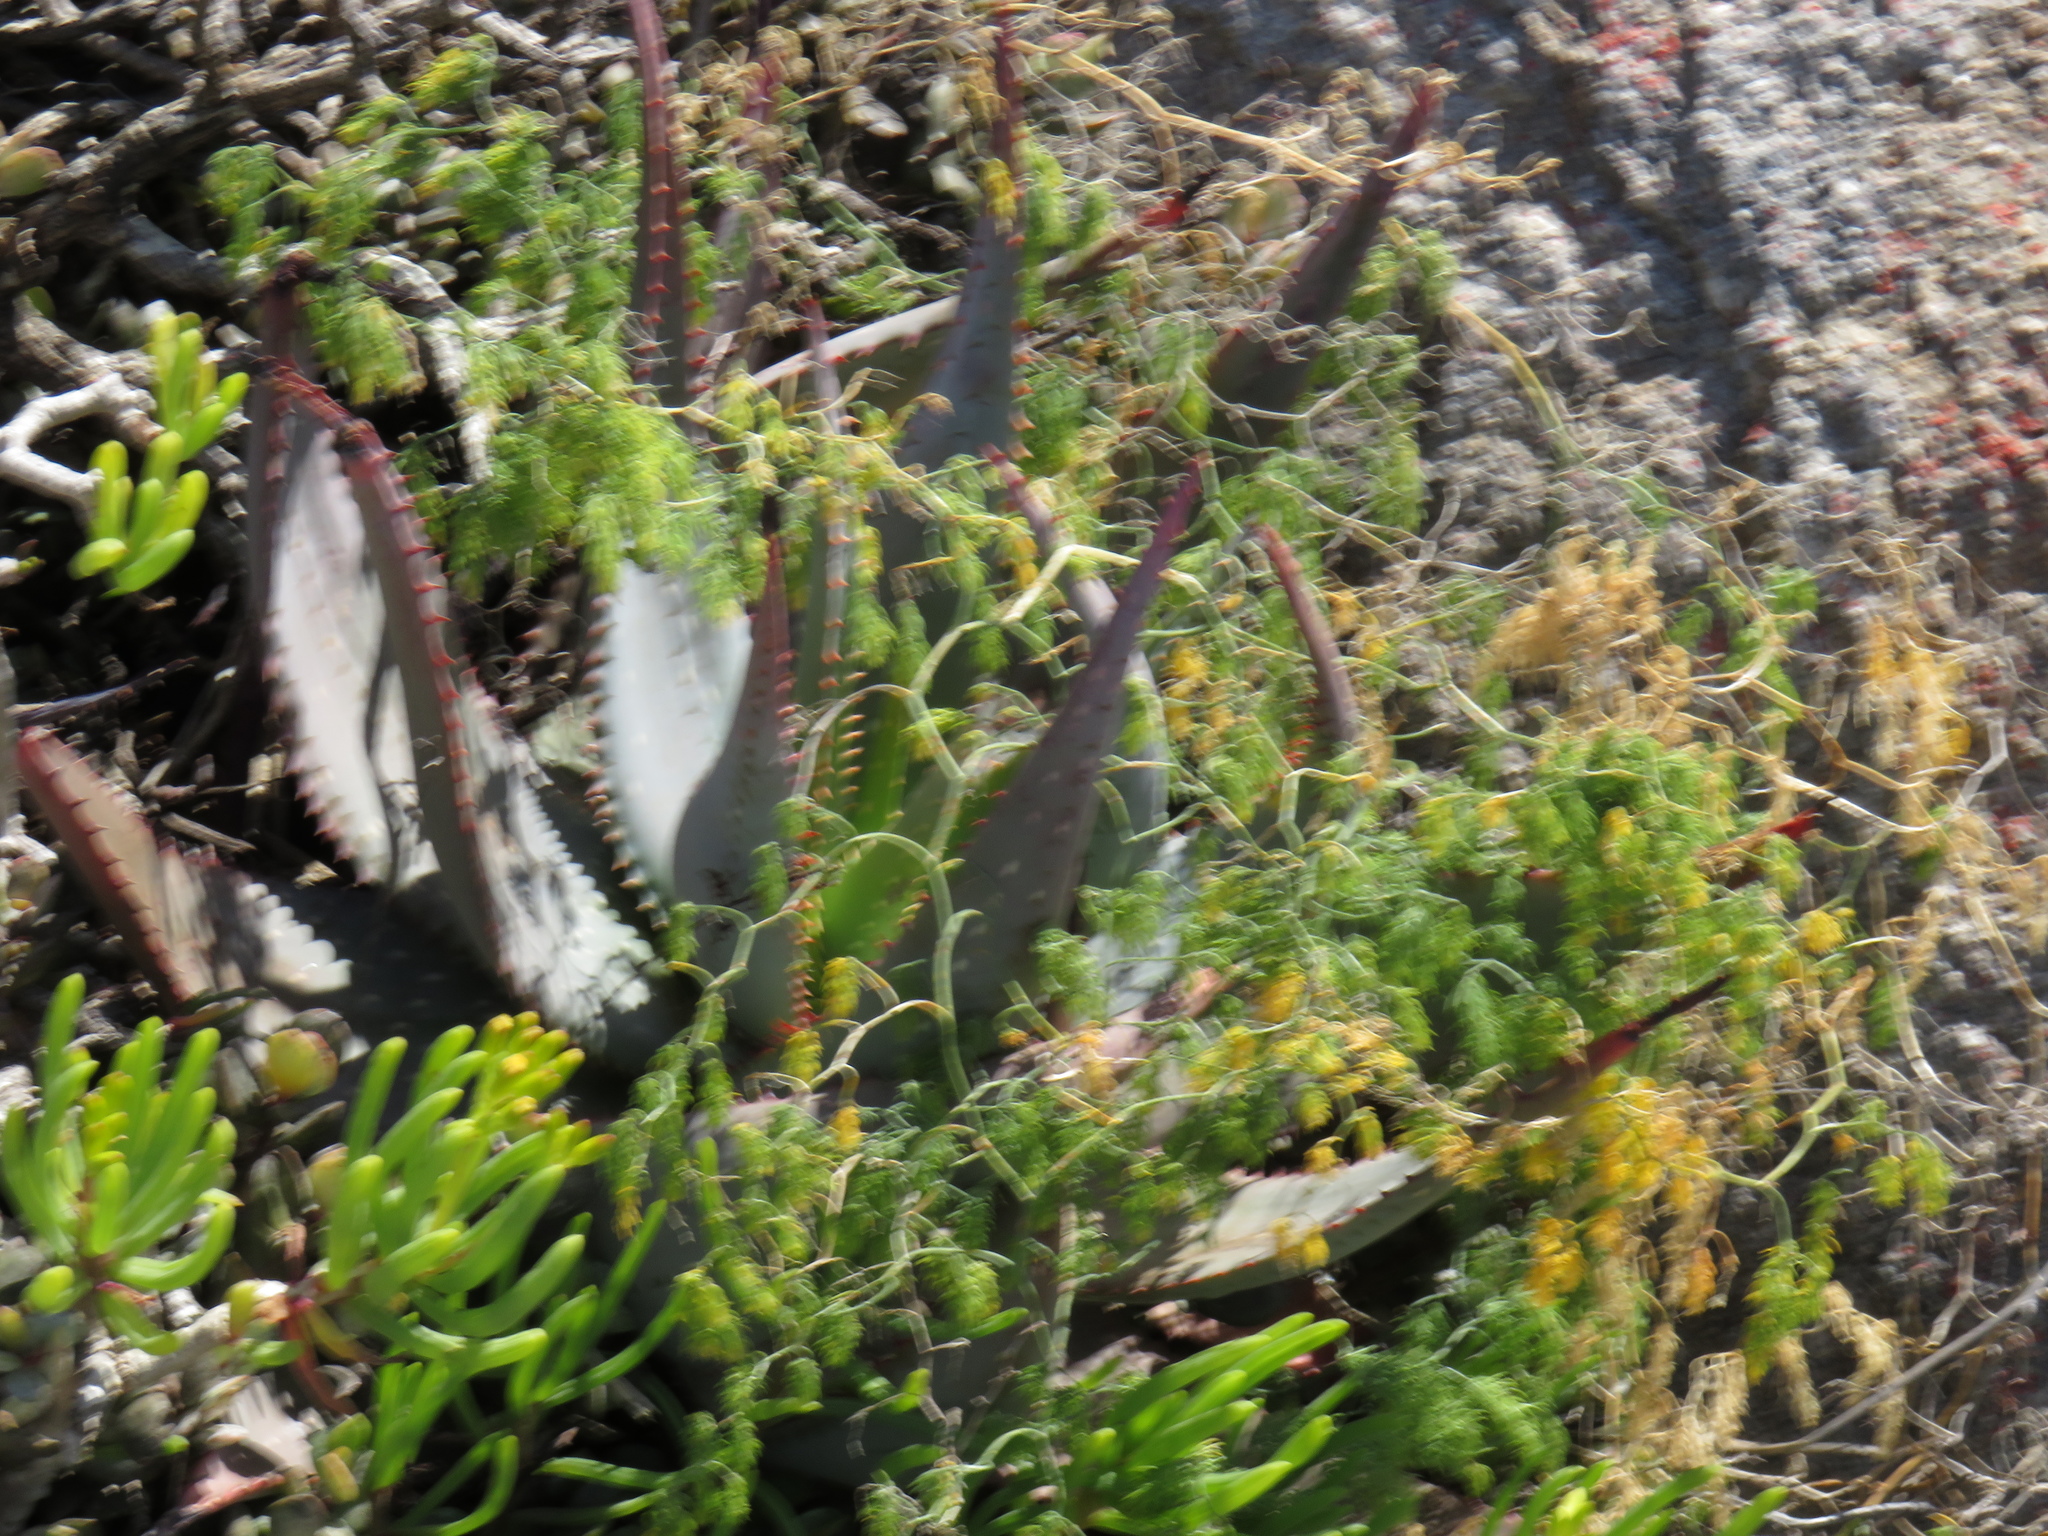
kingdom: Plantae
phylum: Tracheophyta
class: Liliopsida
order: Asparagales
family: Asphodelaceae
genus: Aloe
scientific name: Aloe microstigma
